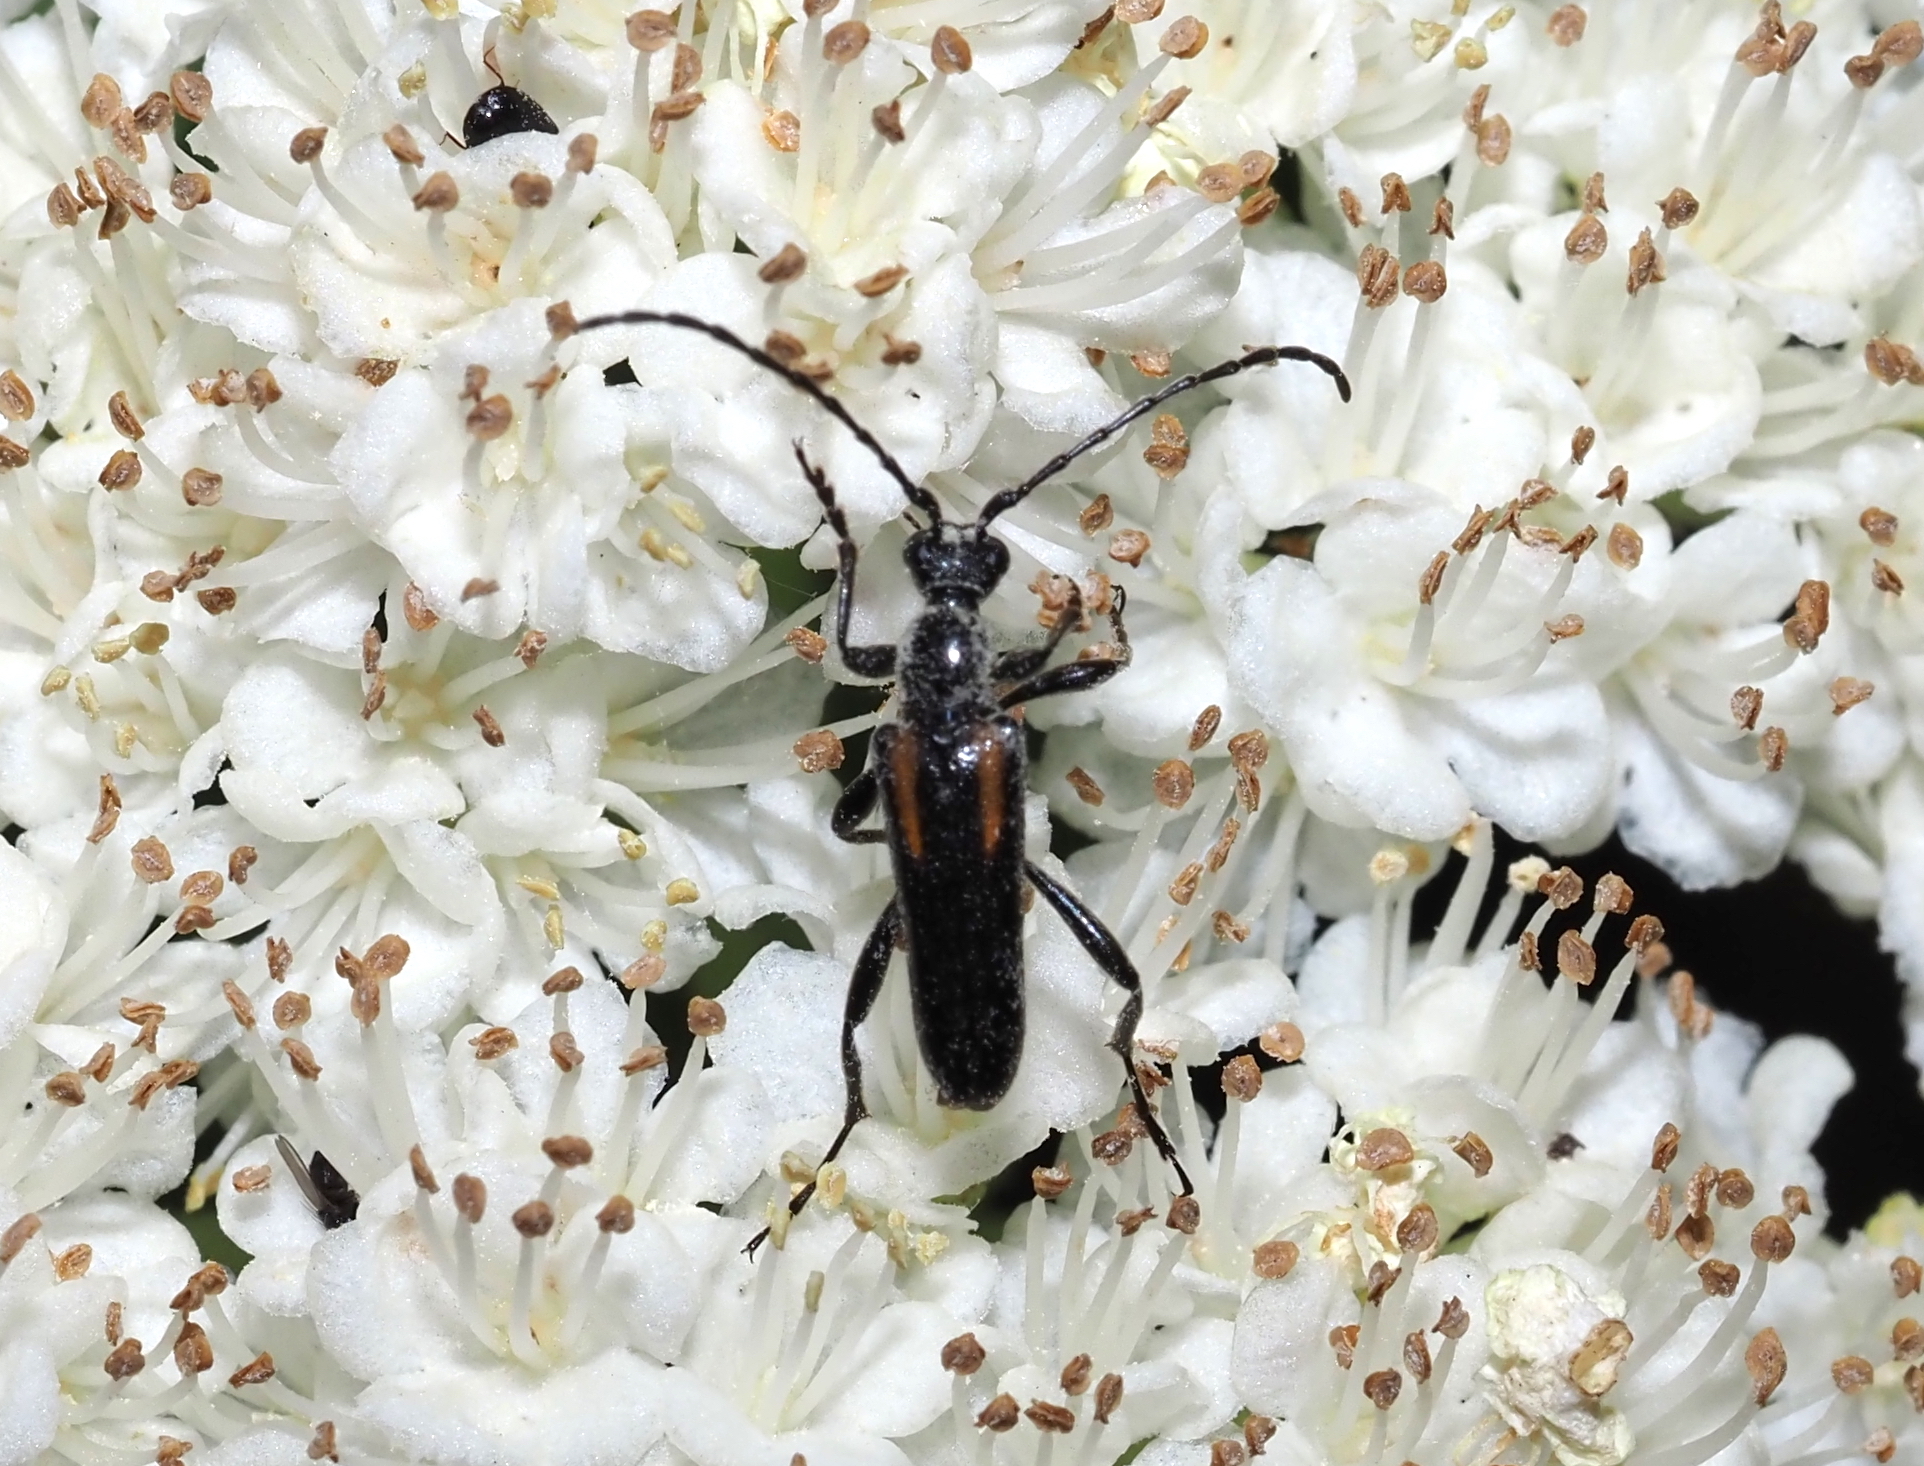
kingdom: Animalia
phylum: Arthropoda
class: Insecta
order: Coleoptera
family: Cerambycidae
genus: Strangalepta
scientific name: Strangalepta abbreviata
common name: Strangalepta flower longhorn beetle
